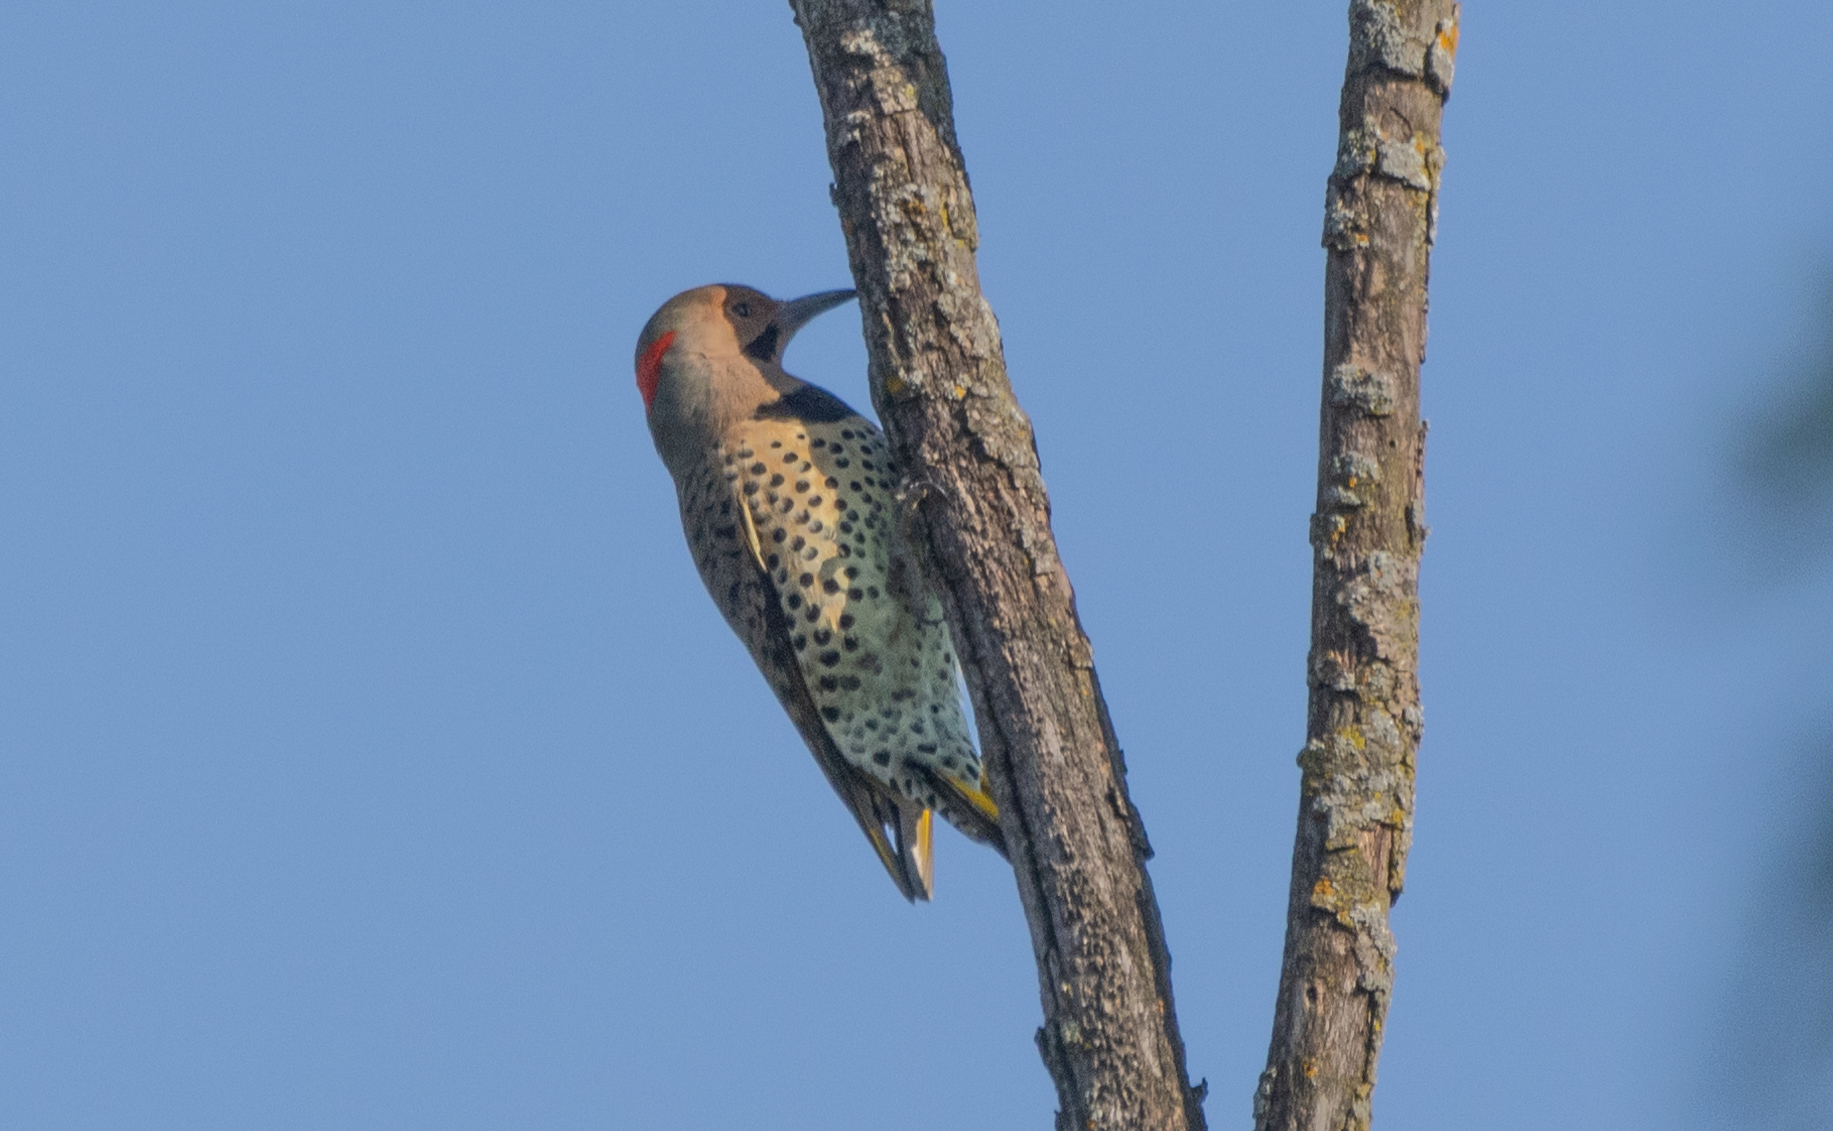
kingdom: Animalia
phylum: Chordata
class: Aves
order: Piciformes
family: Picidae
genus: Colaptes
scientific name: Colaptes auratus
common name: Northern flicker
